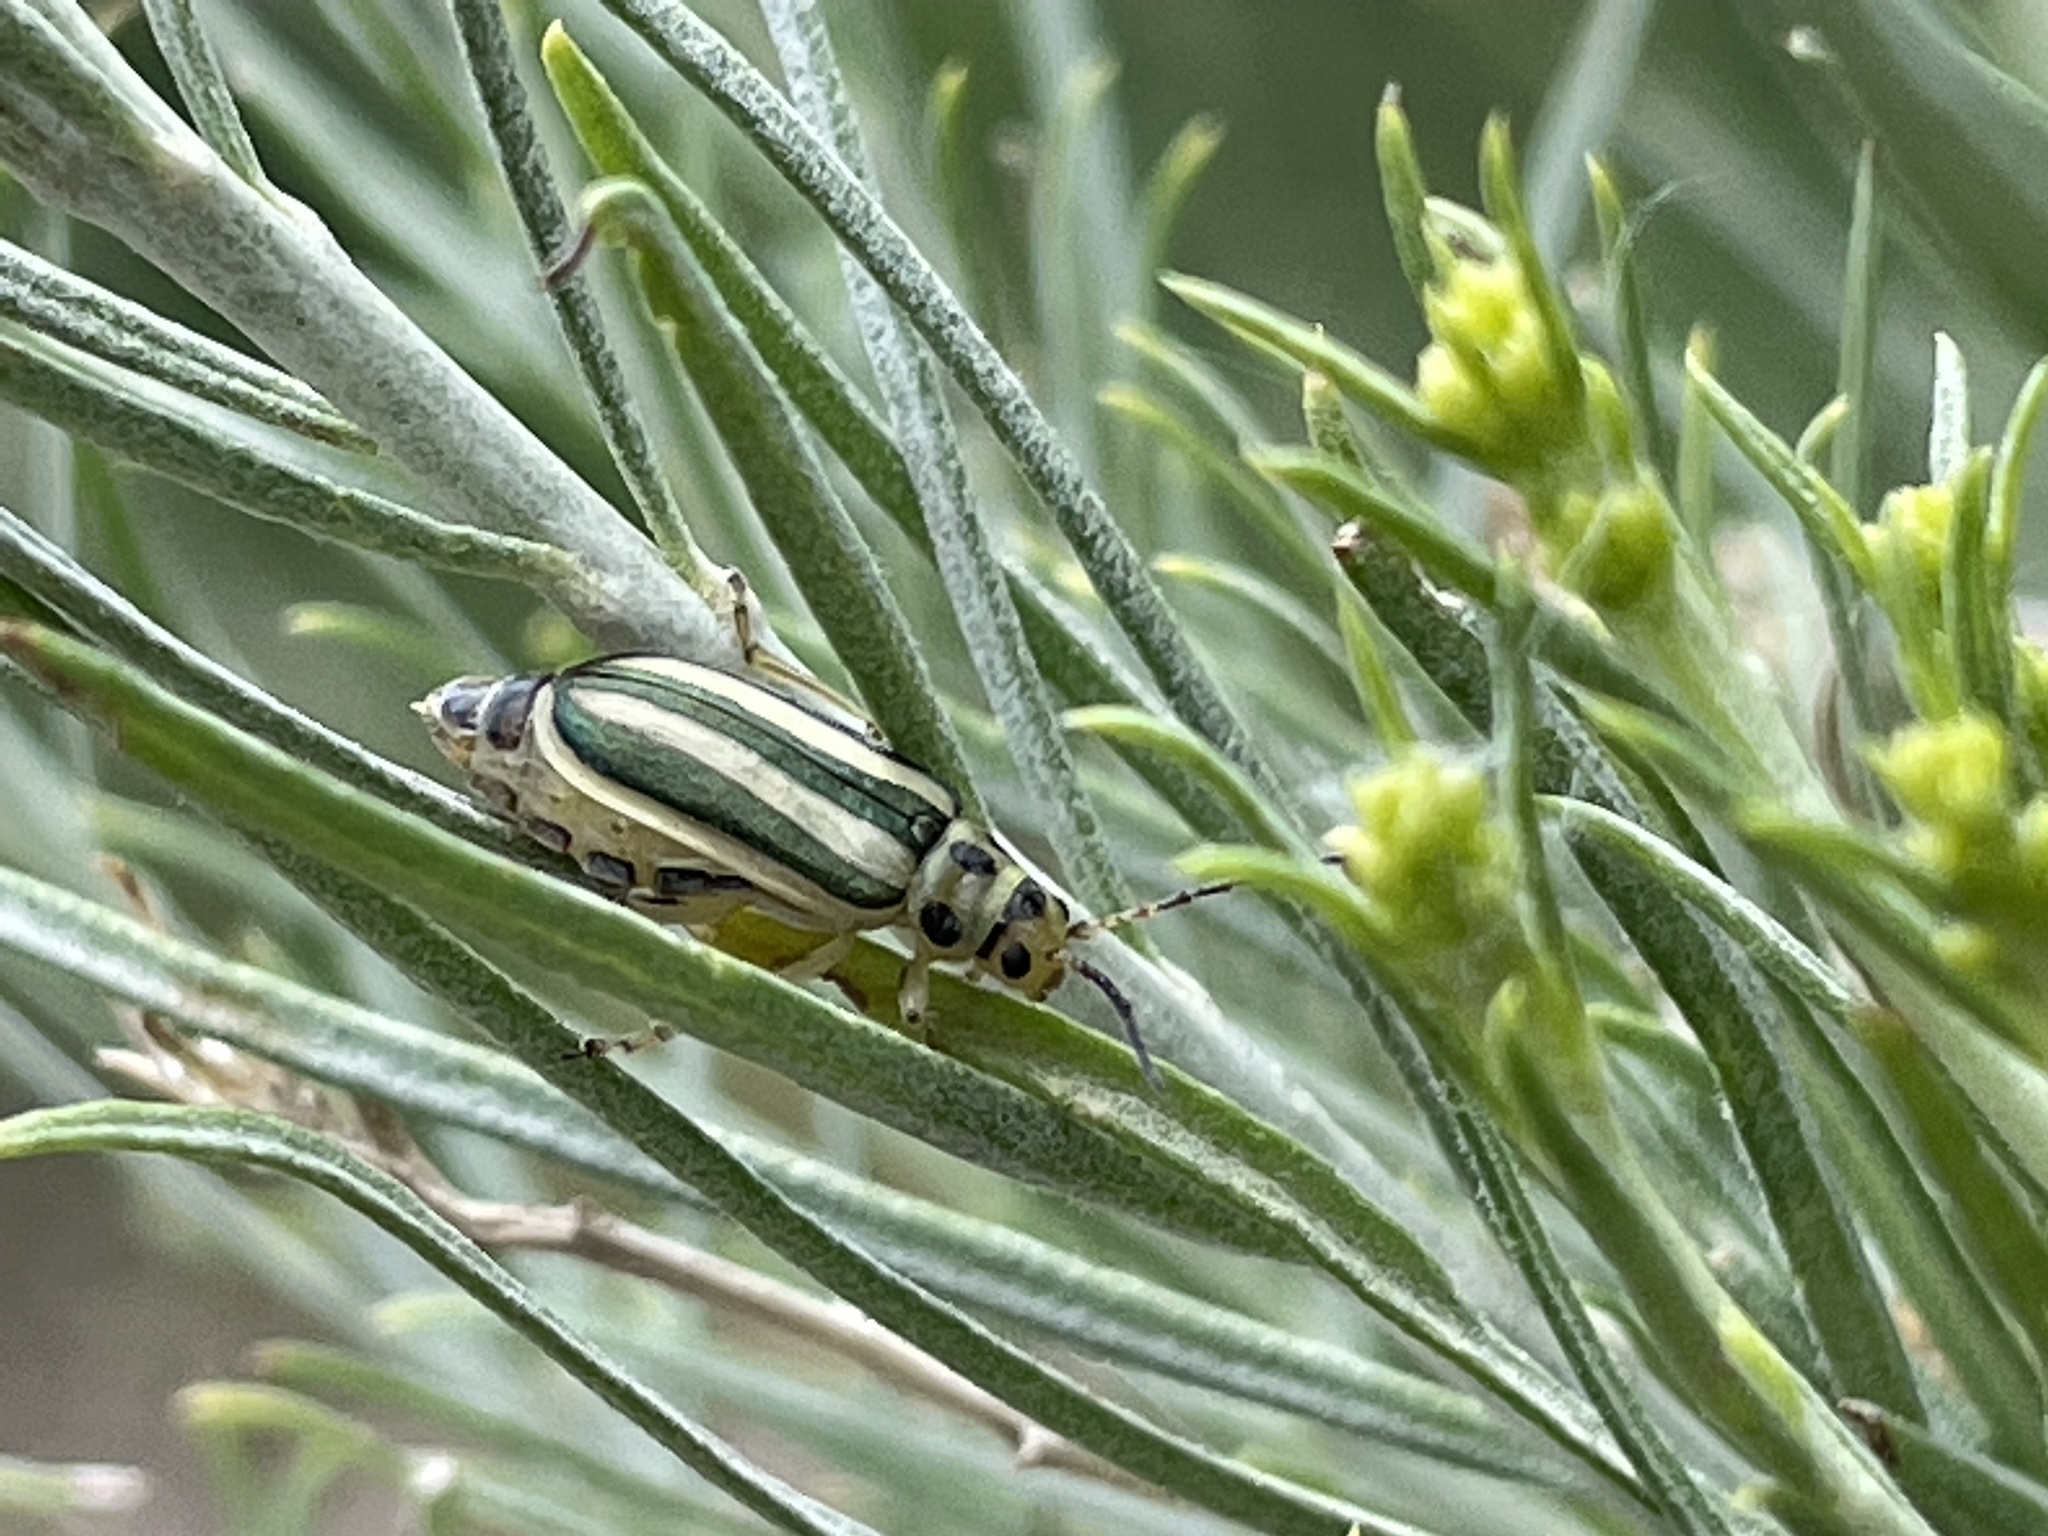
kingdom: Animalia
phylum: Arthropoda
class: Insecta
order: Coleoptera
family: Chrysomelidae
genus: Trirhabda
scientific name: Trirhabda nitidicollis
